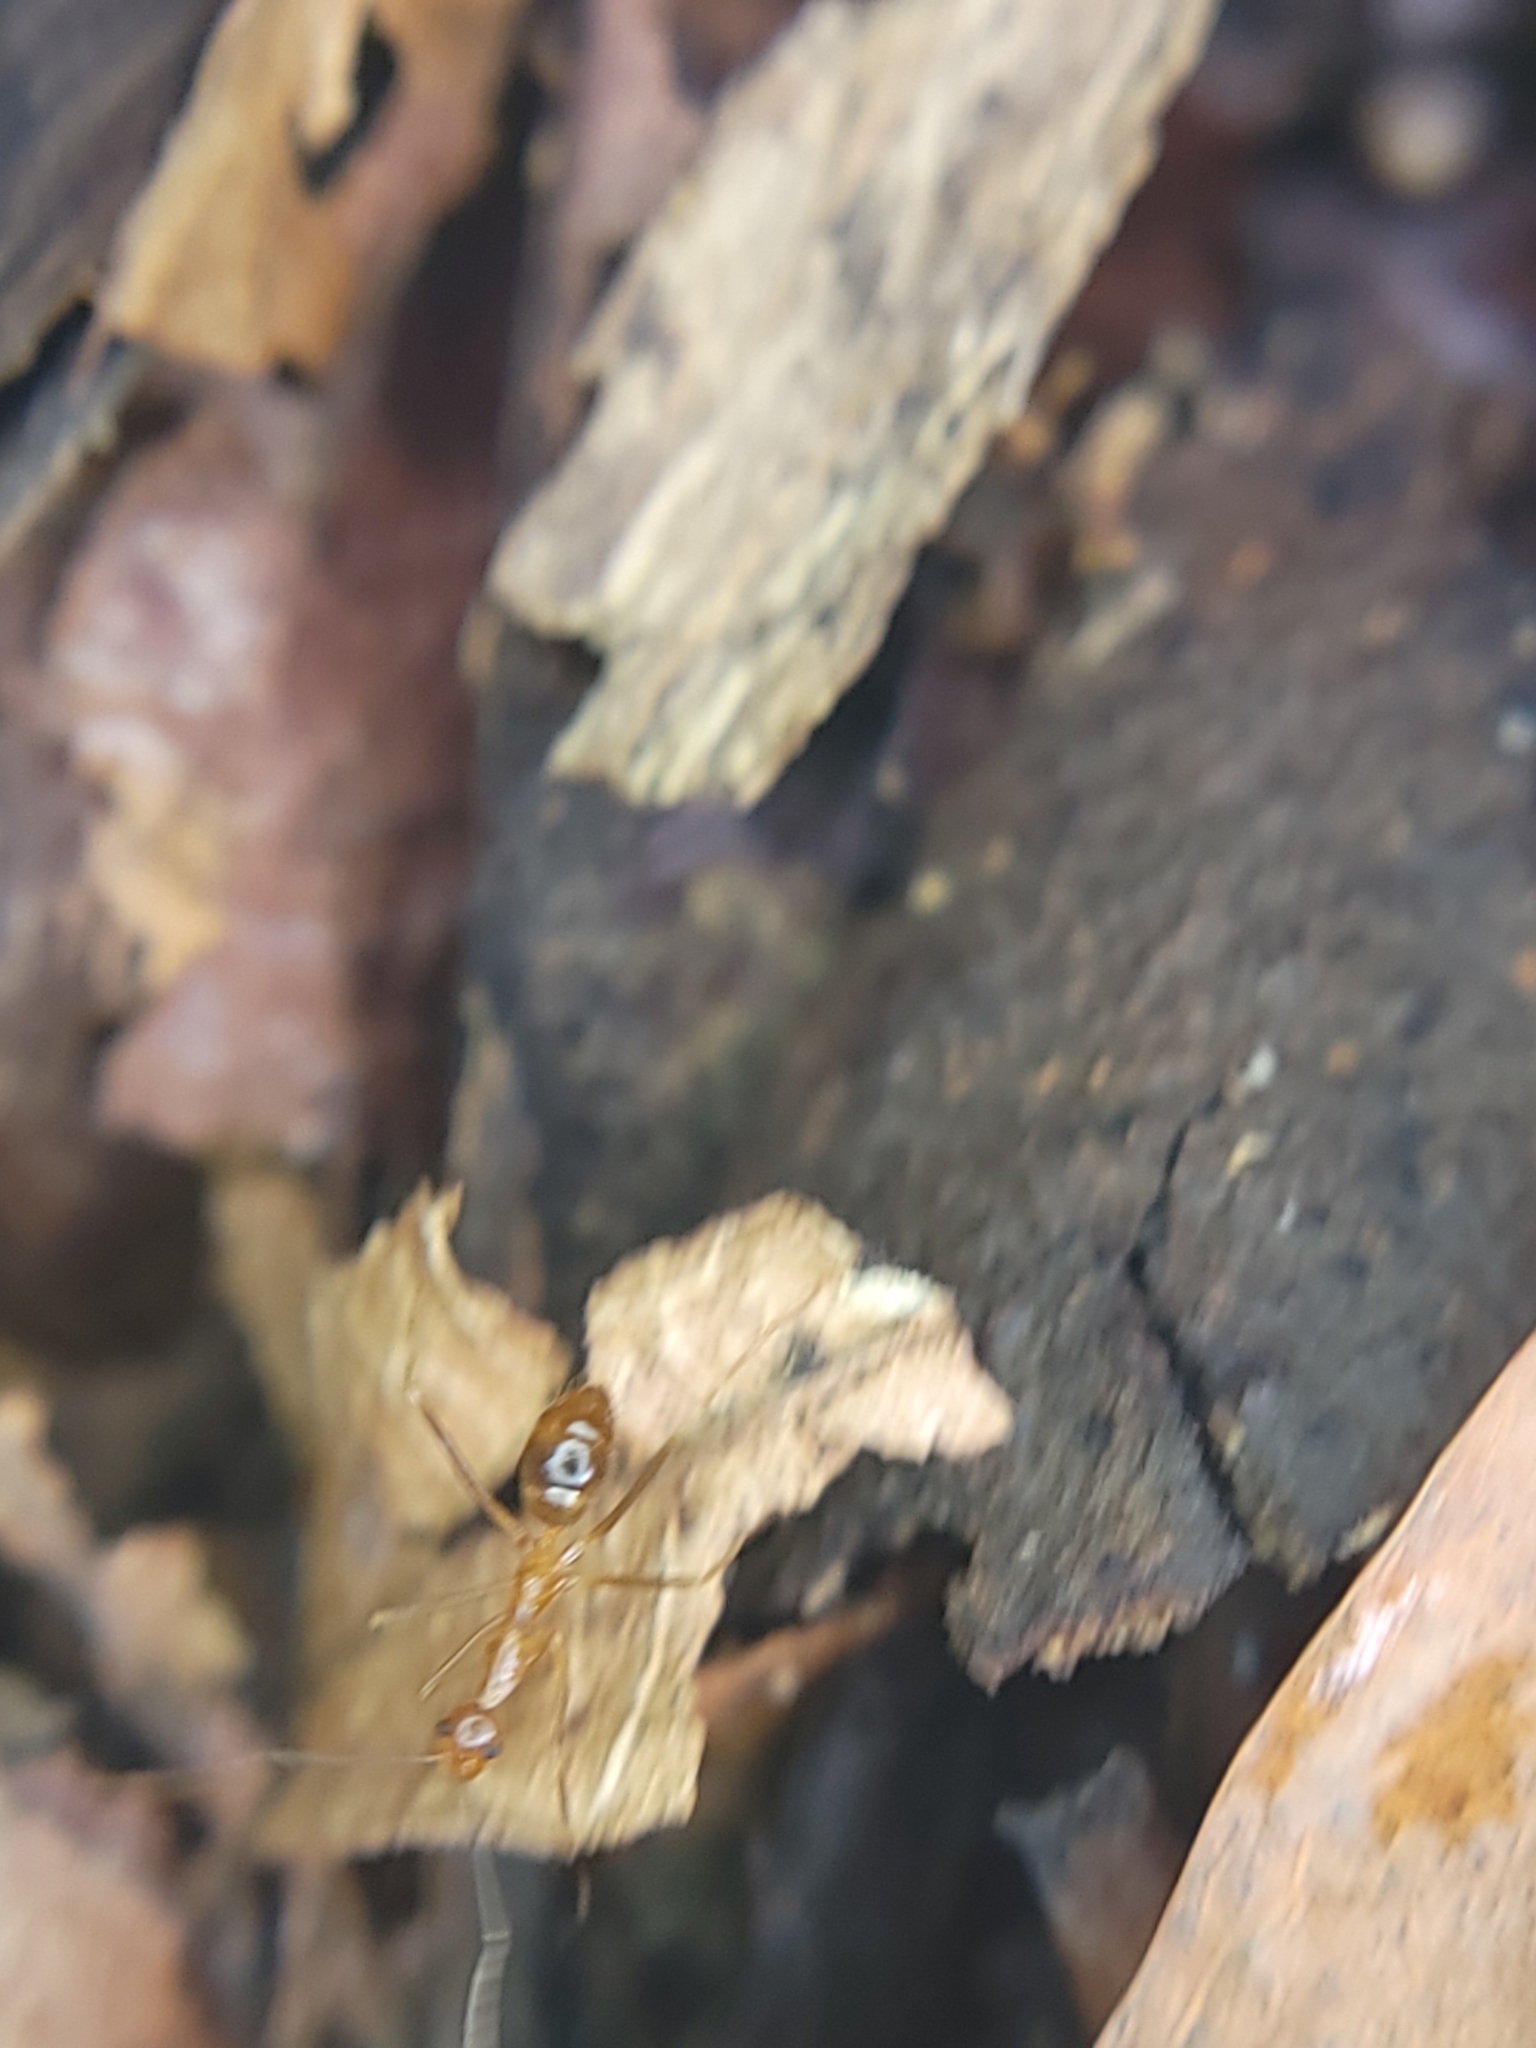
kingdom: Animalia
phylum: Arthropoda
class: Insecta
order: Hymenoptera
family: Formicidae
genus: Anoplolepis
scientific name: Anoplolepis gracilipes
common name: Ant
